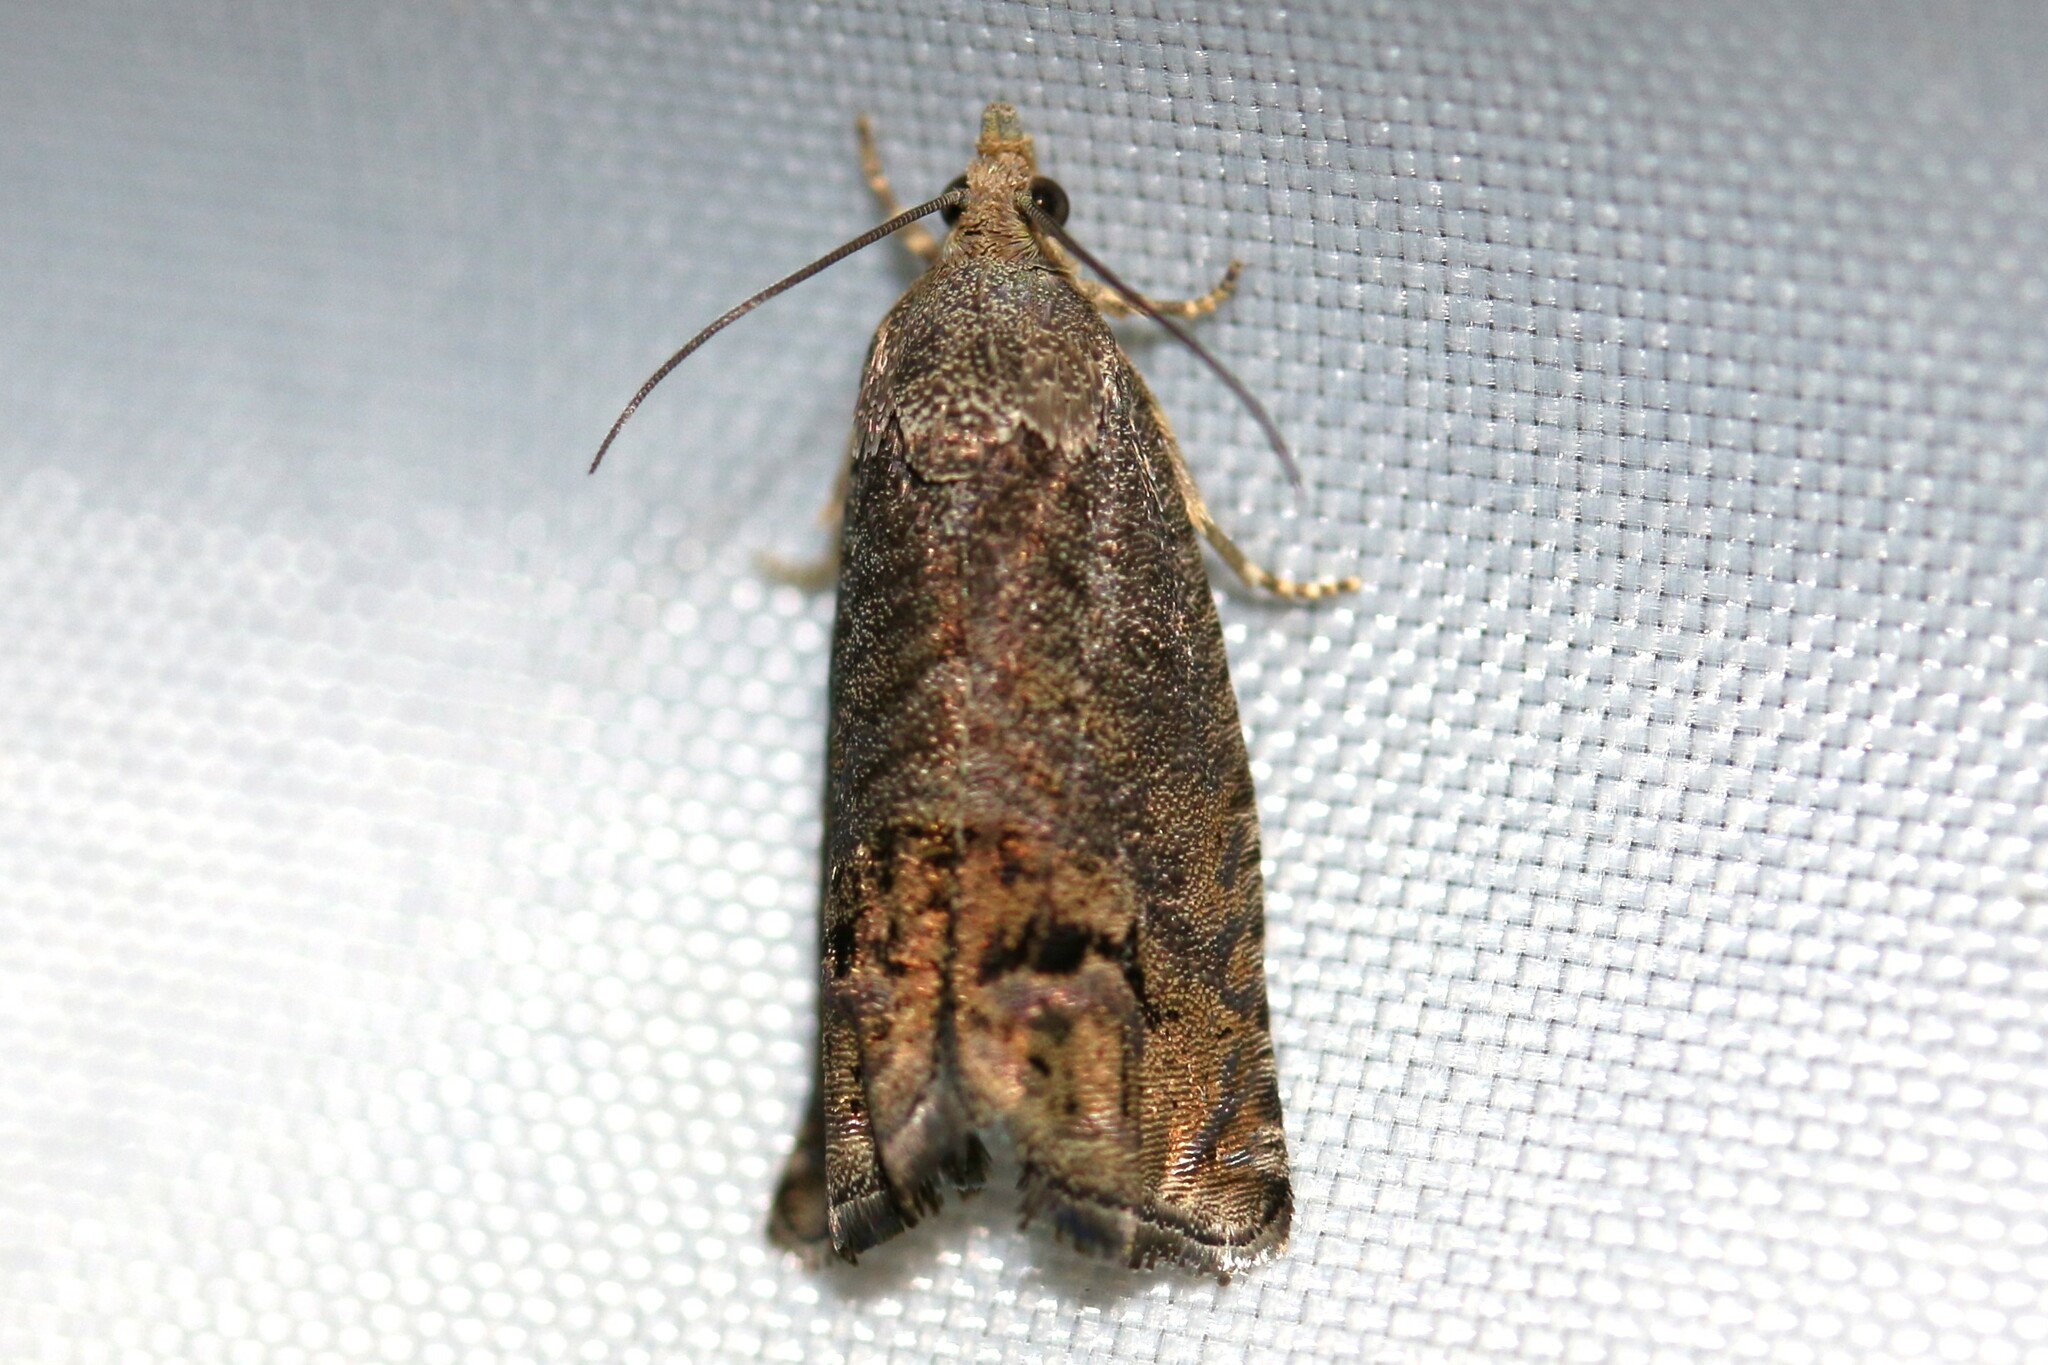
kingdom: Animalia
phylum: Arthropoda
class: Insecta
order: Lepidoptera
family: Tortricidae
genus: Cydia
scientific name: Cydia splendana
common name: De: kastanienwickler, eichenwickler es: oruga de la castaña fr: carpocapse des châtaignes it: cidia o tortrice tardiva delle castagne pt: bichado das castanhas gb: acorn moth, chestnut fruit tortrix
